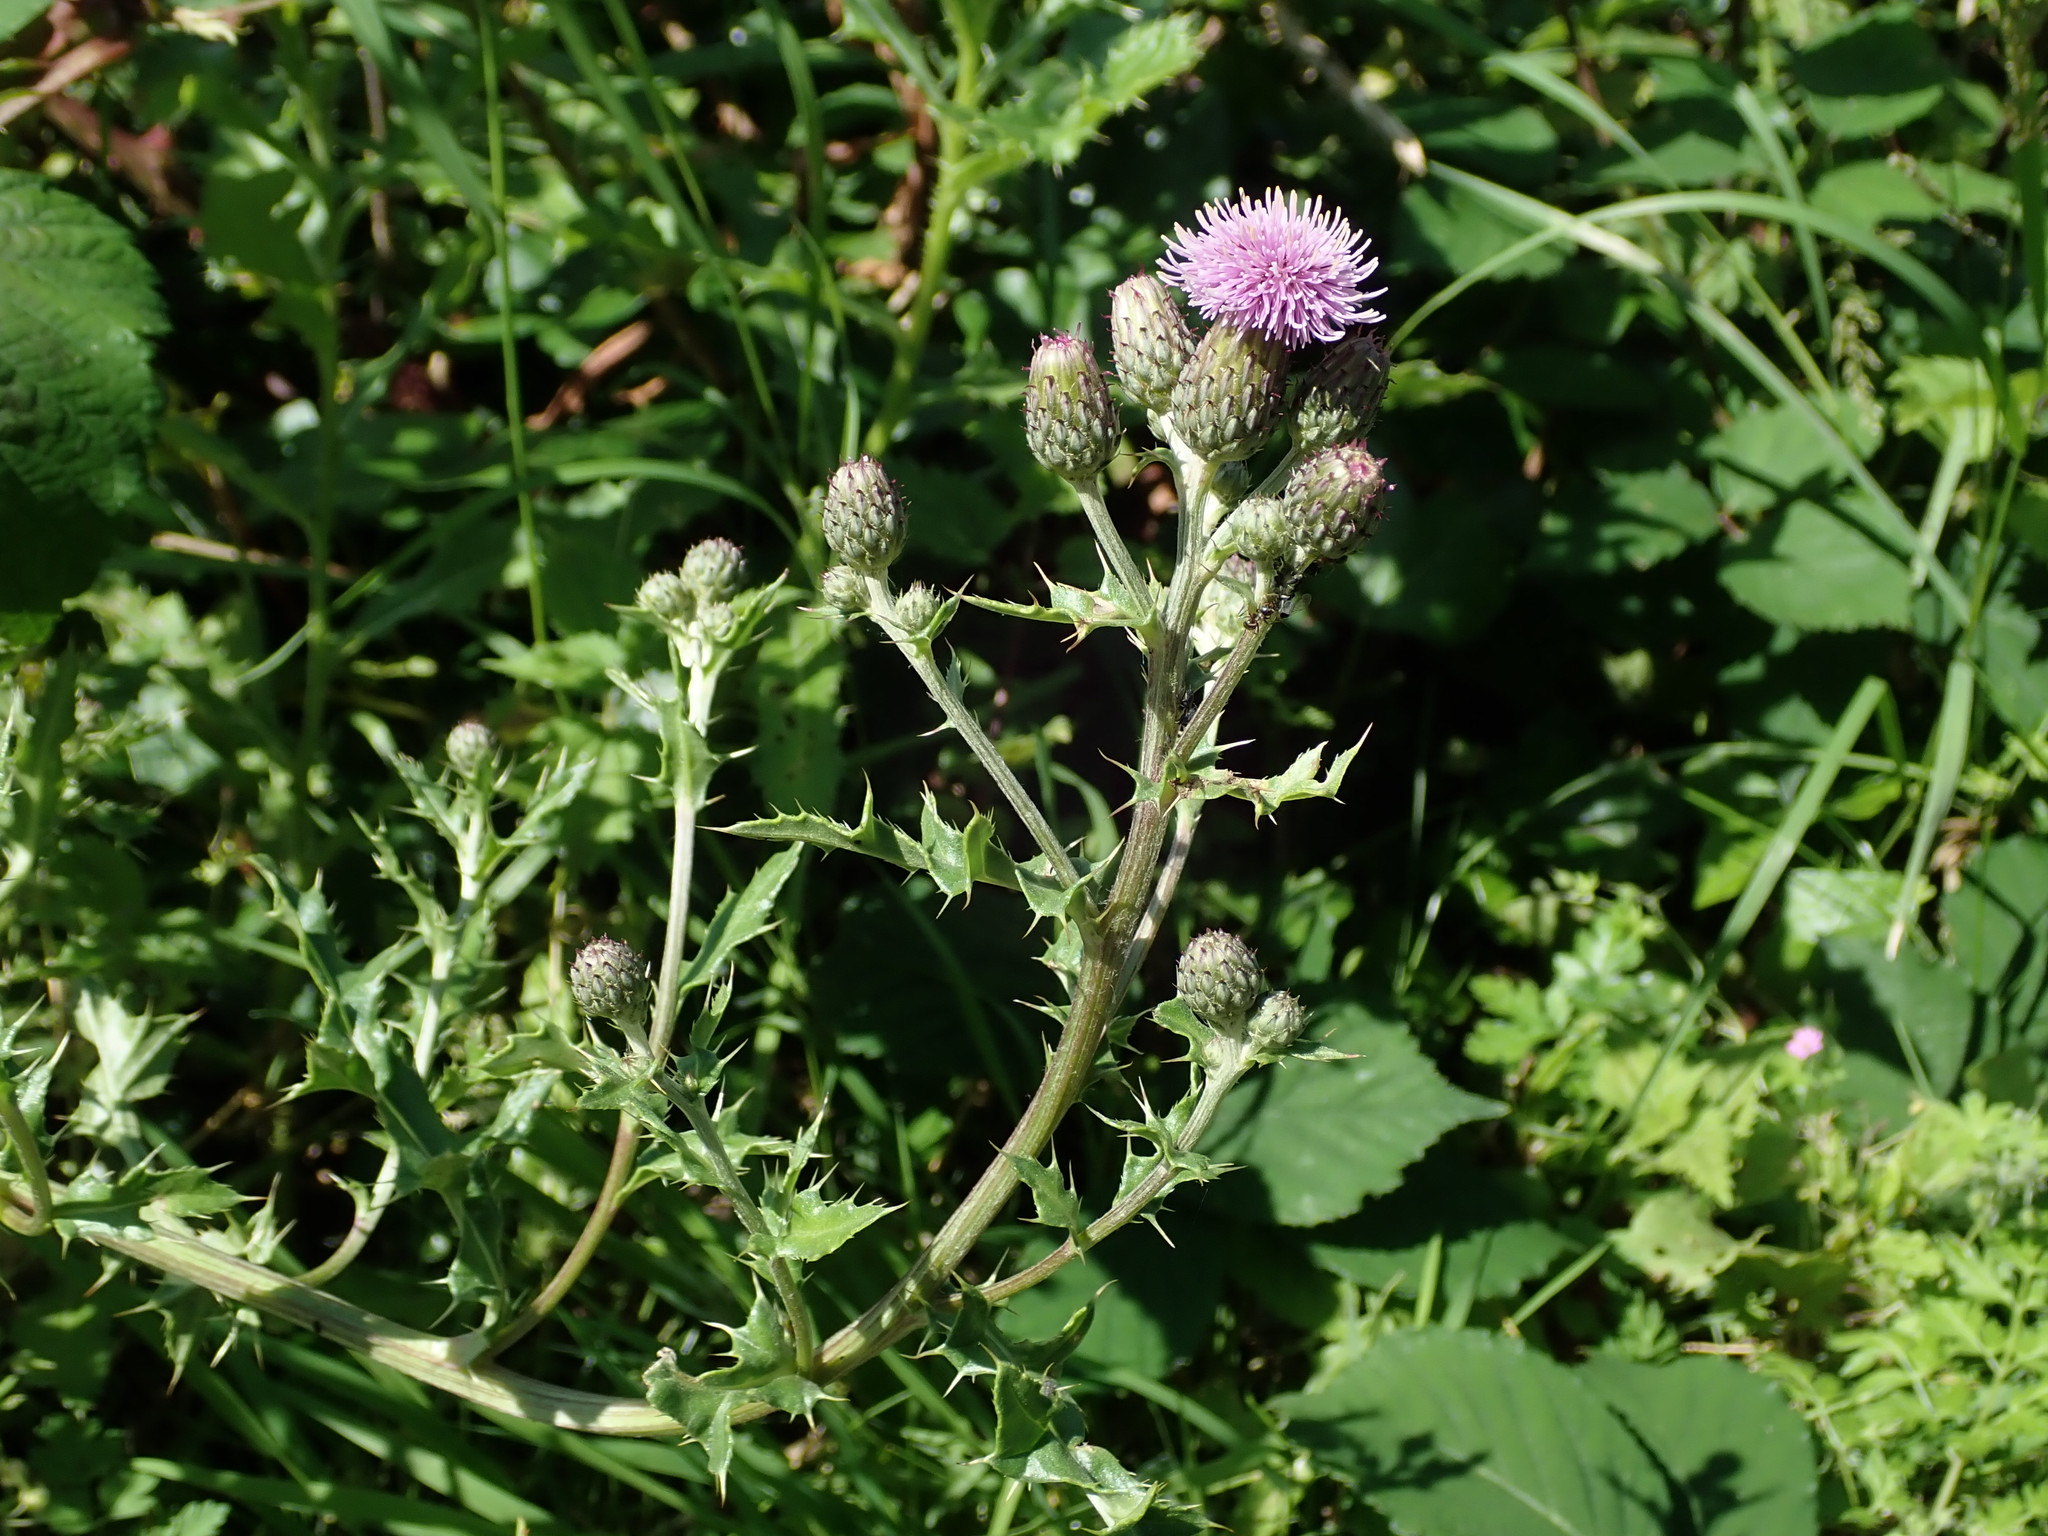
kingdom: Plantae
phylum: Tracheophyta
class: Magnoliopsida
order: Asterales
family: Asteraceae
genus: Cirsium
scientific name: Cirsium arvense
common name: Creeping thistle
